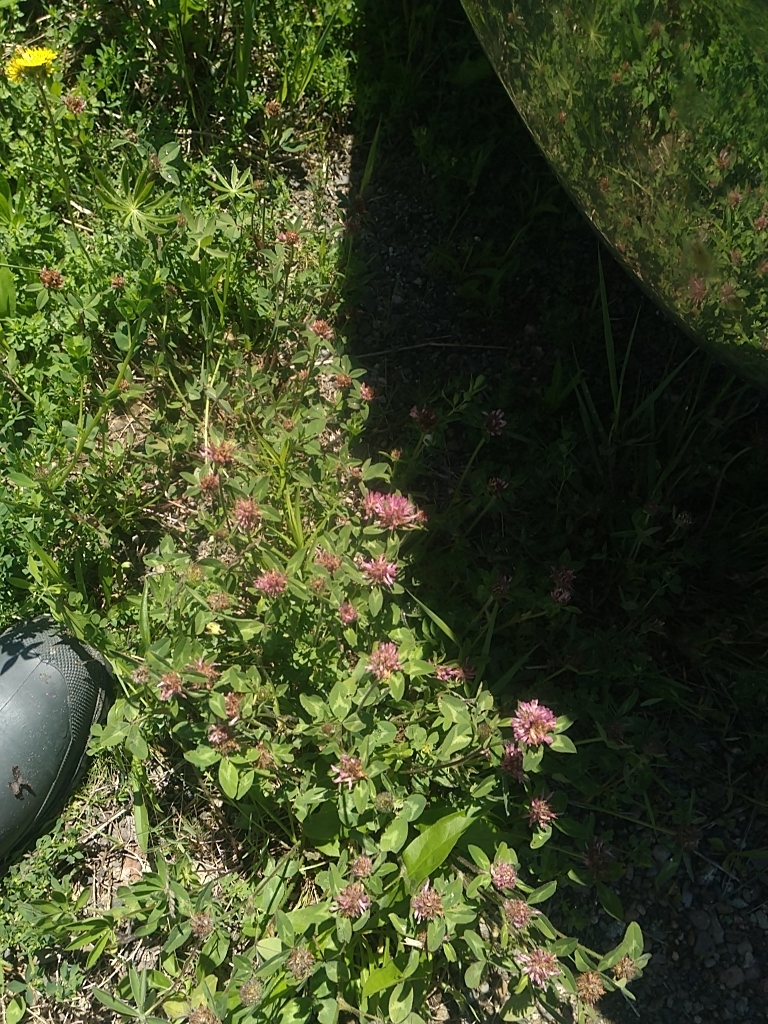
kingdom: Plantae
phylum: Tracheophyta
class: Magnoliopsida
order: Fabales
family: Fabaceae
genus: Trifolium
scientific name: Trifolium pratense
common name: Red clover
